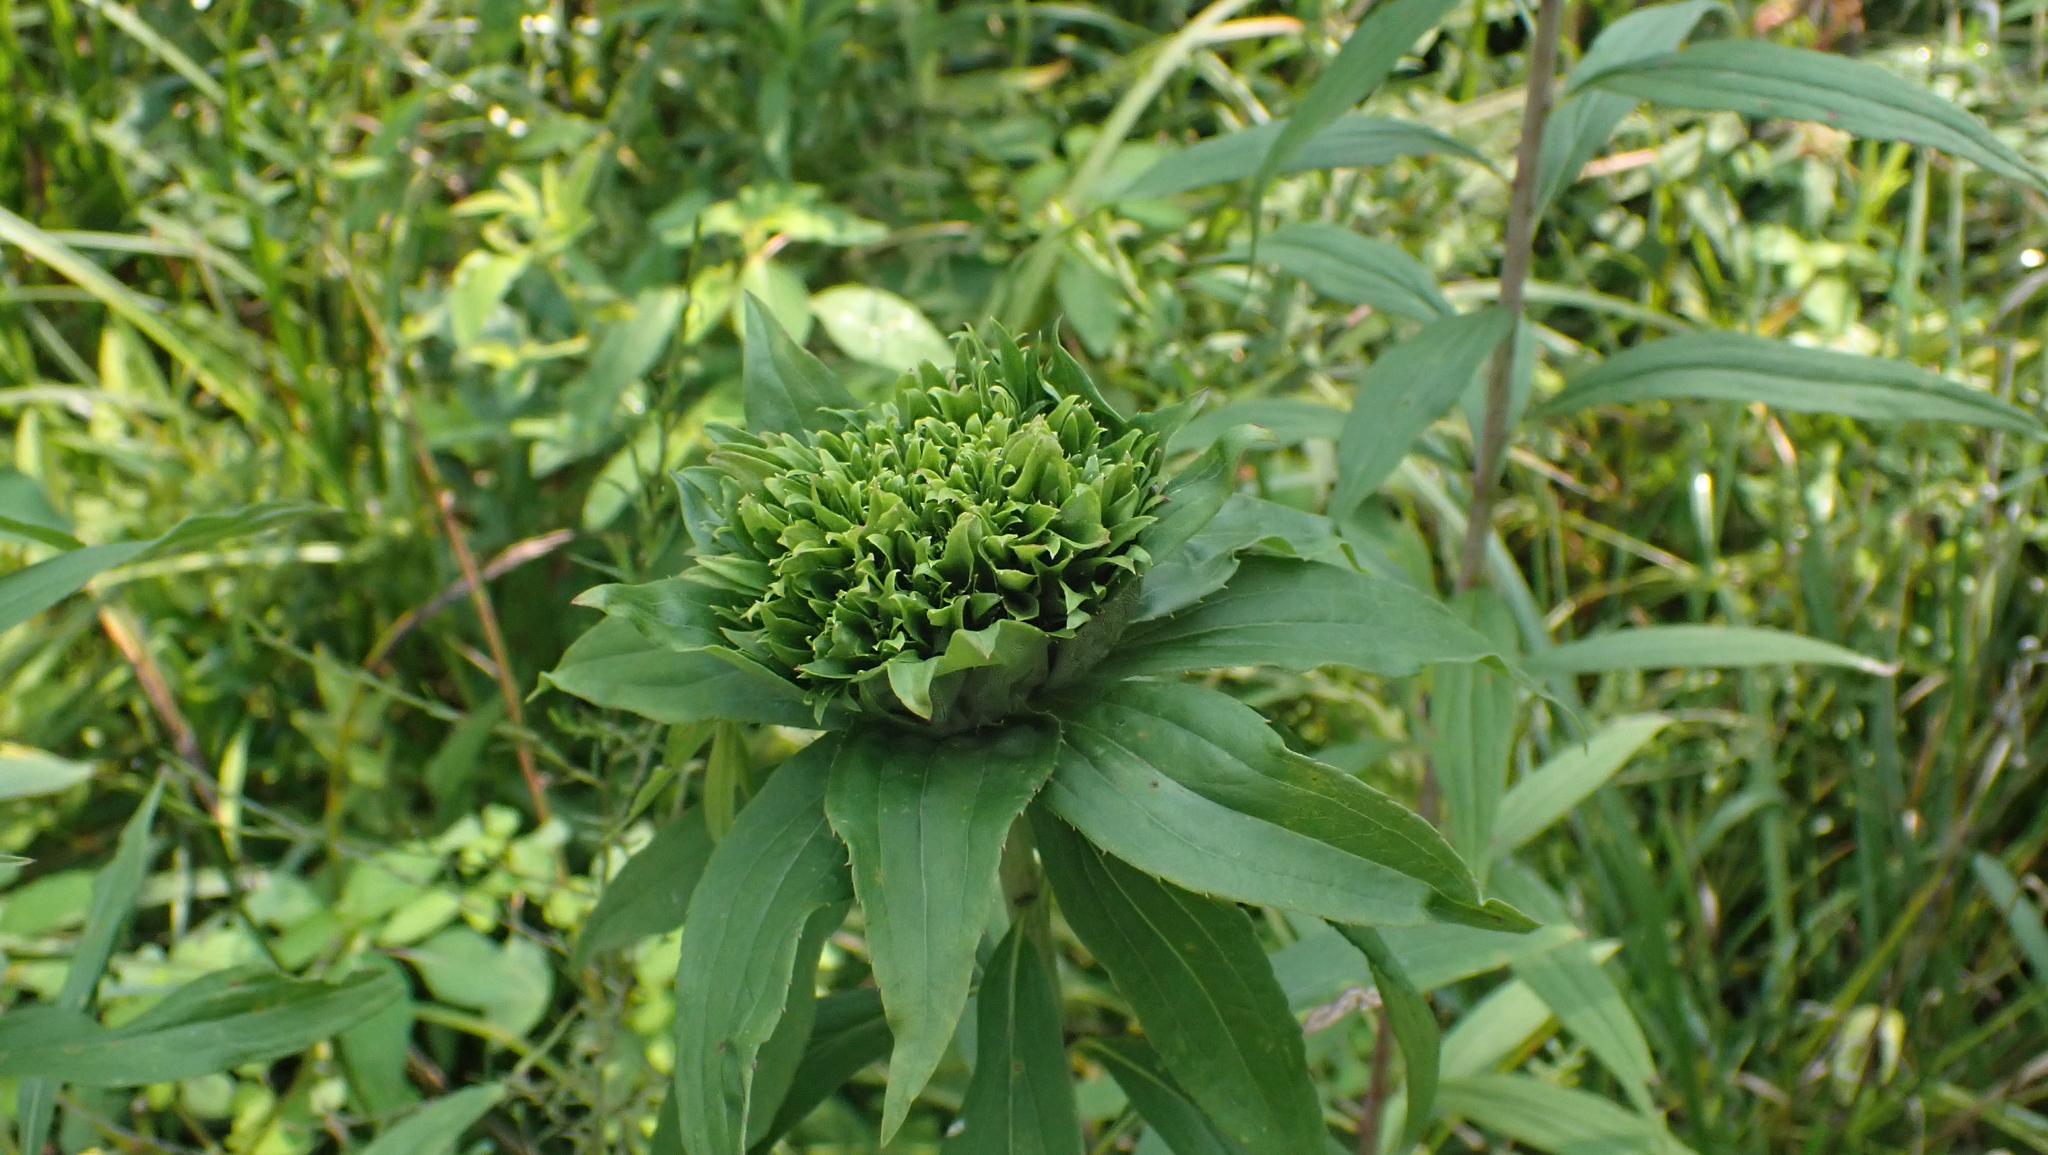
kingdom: Animalia
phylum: Arthropoda
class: Insecta
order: Diptera
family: Cecidomyiidae
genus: Rhopalomyia
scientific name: Rhopalomyia capitata
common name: Giant goldenrod bunch gall midge
